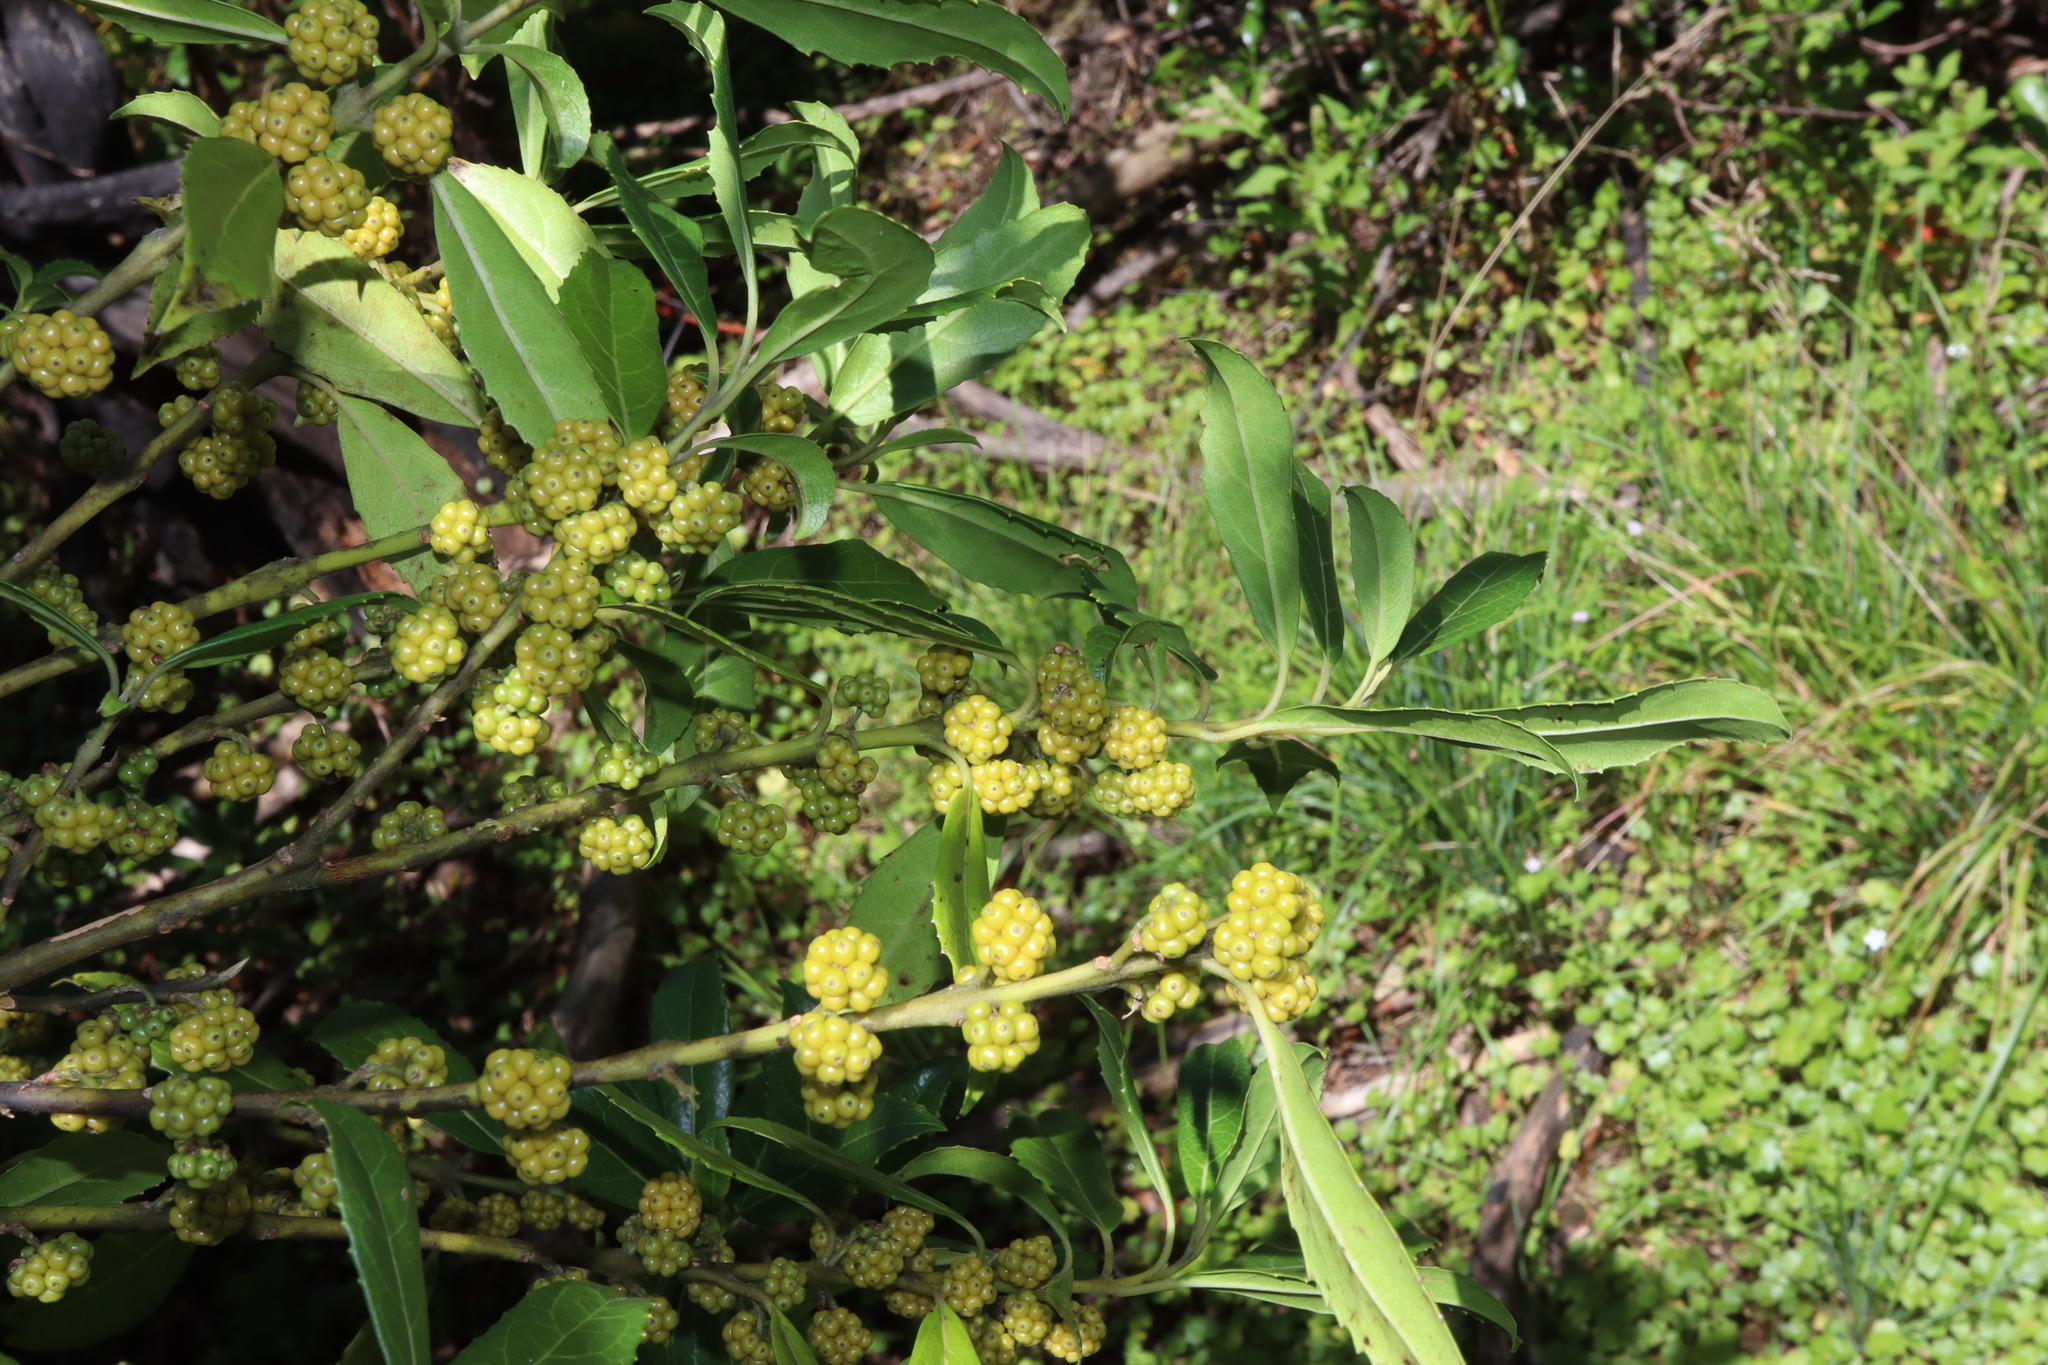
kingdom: Plantae
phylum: Tracheophyta
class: Magnoliopsida
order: Laurales
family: Monimiaceae
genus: Hedycarya
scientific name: Hedycarya angustifolia
